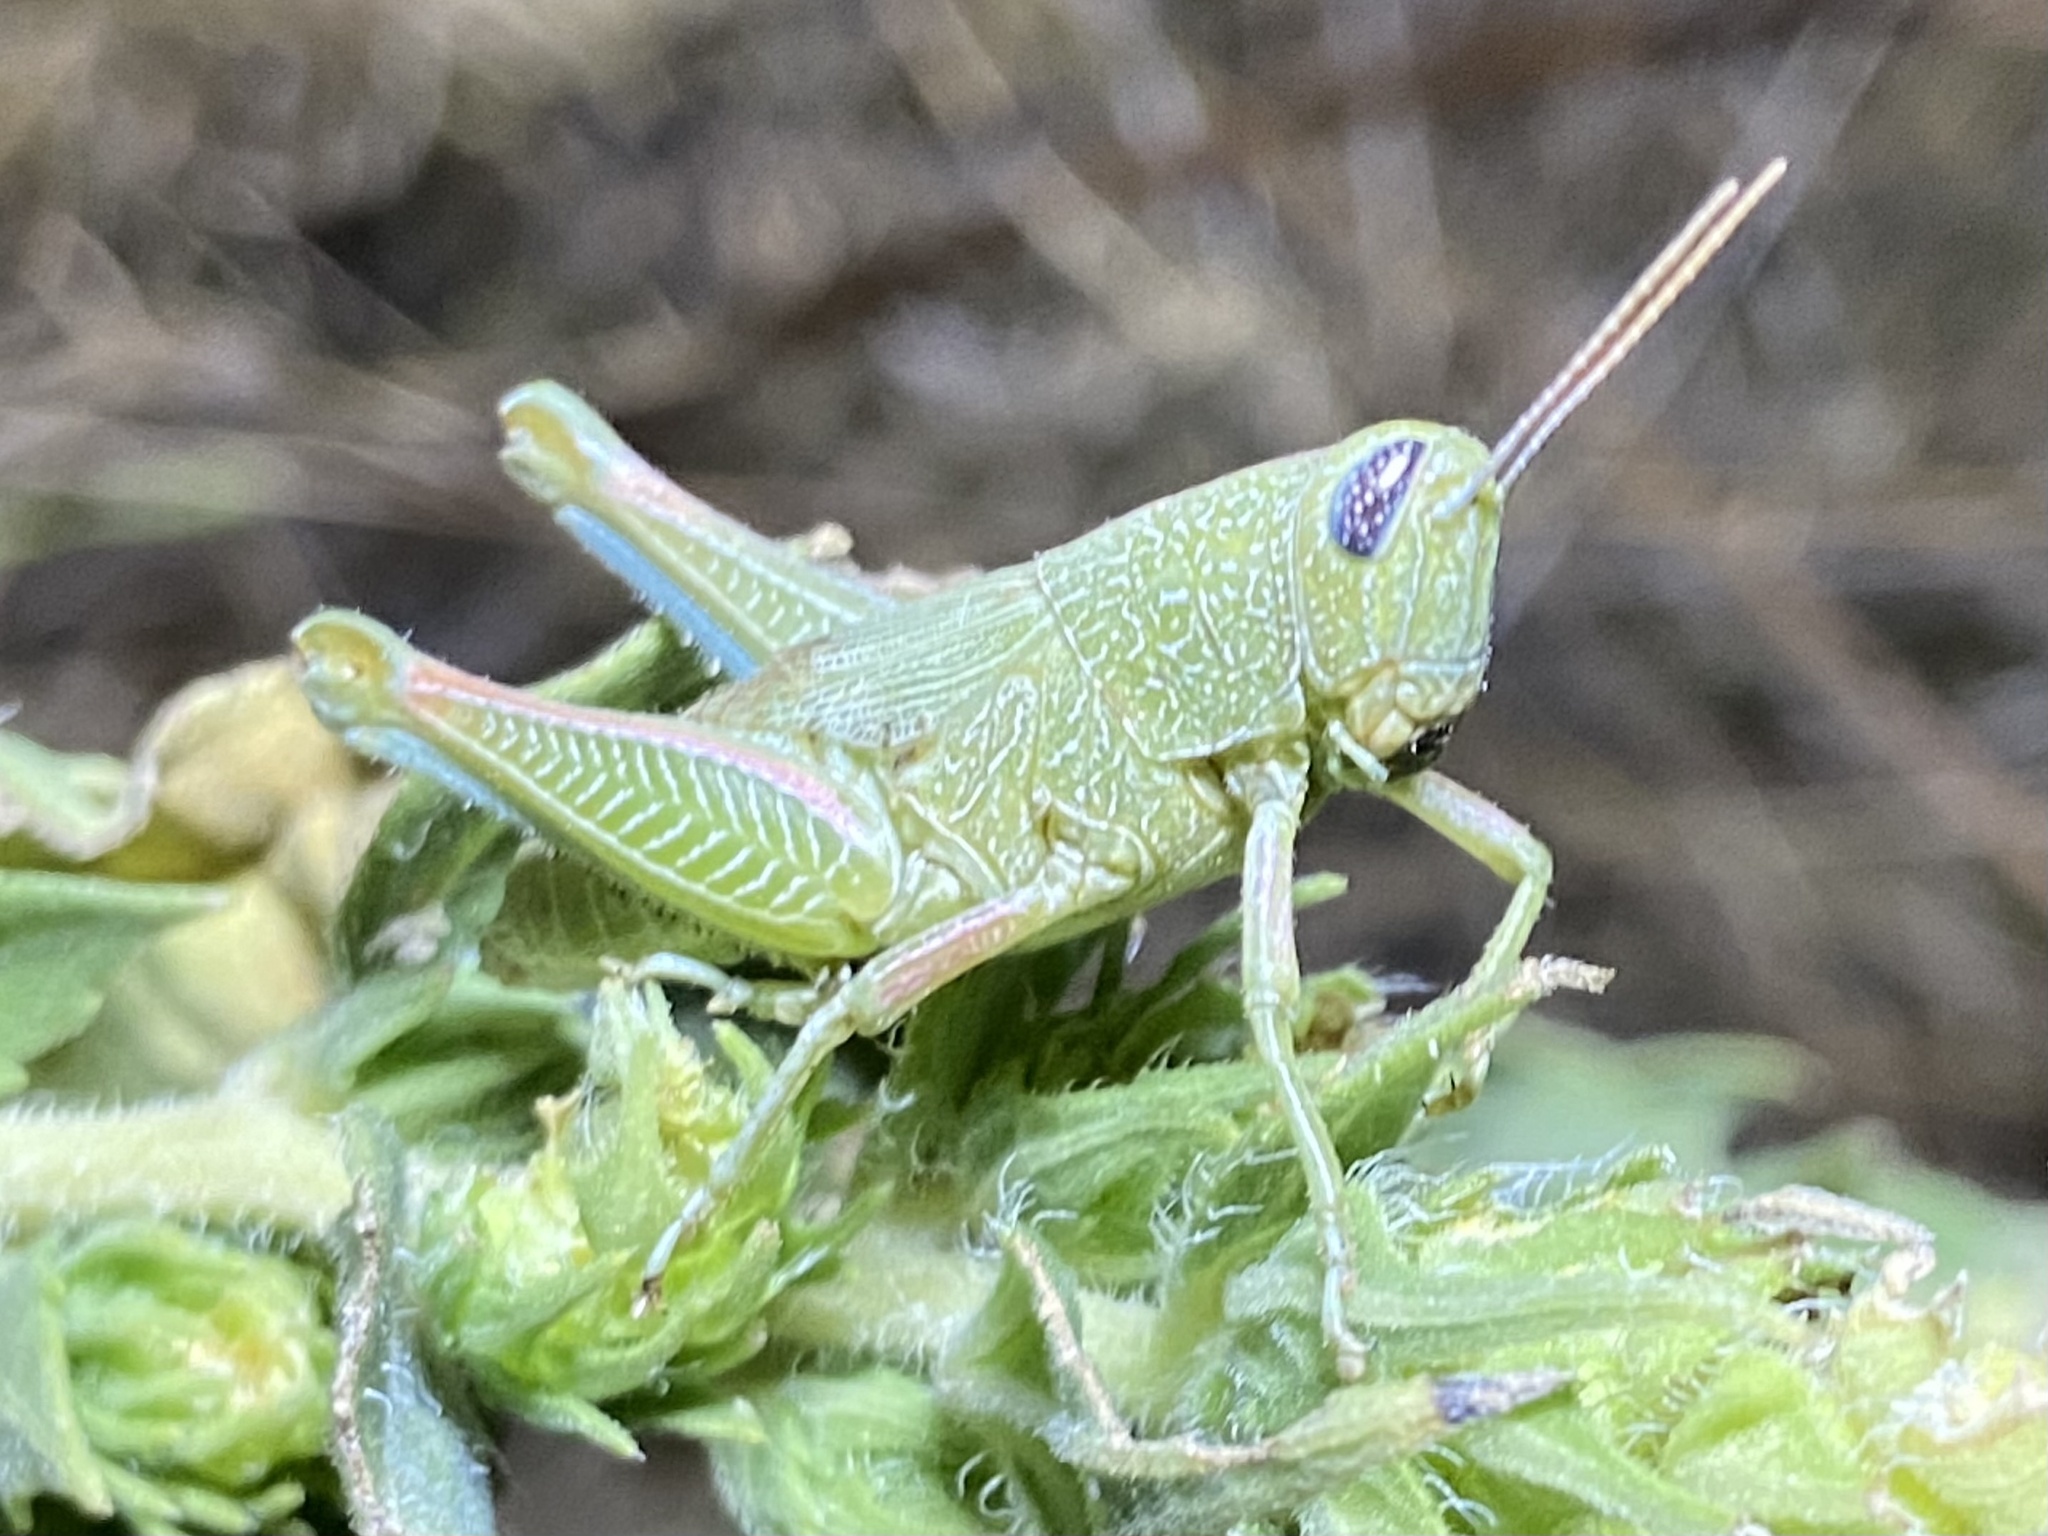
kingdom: Animalia
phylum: Arthropoda
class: Insecta
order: Orthoptera
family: Acrididae
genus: Hesperotettix
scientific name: Hesperotettix speciosus
